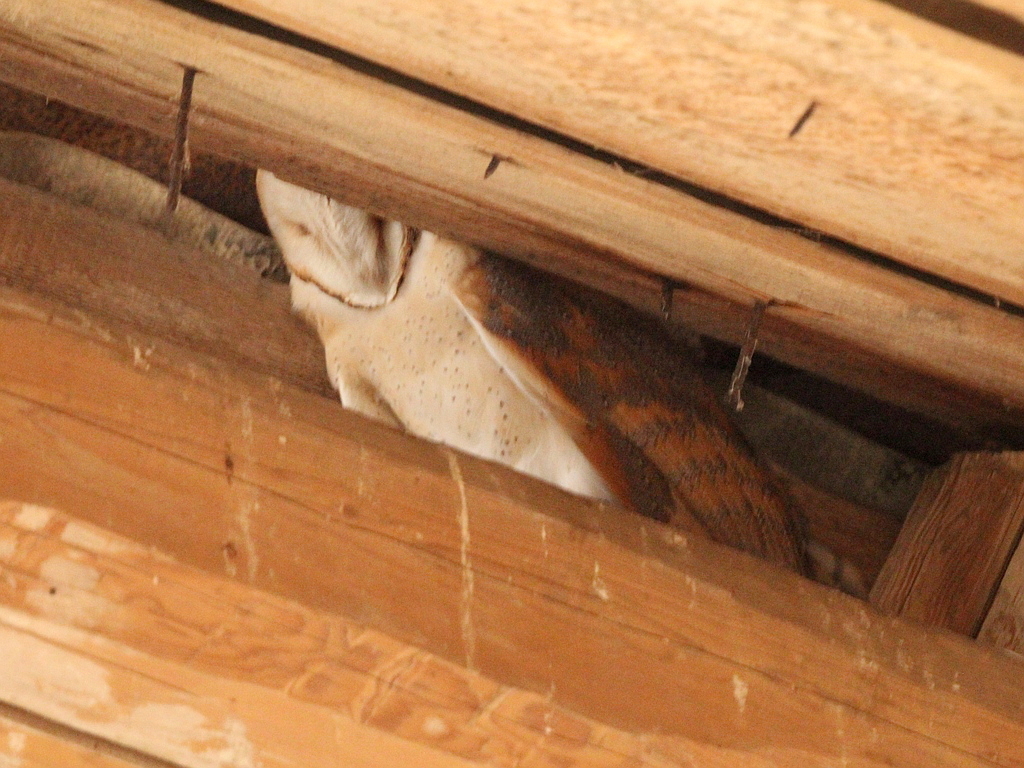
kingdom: Animalia
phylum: Chordata
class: Aves
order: Strigiformes
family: Tytonidae
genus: Tyto
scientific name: Tyto alba
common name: Barn owl
